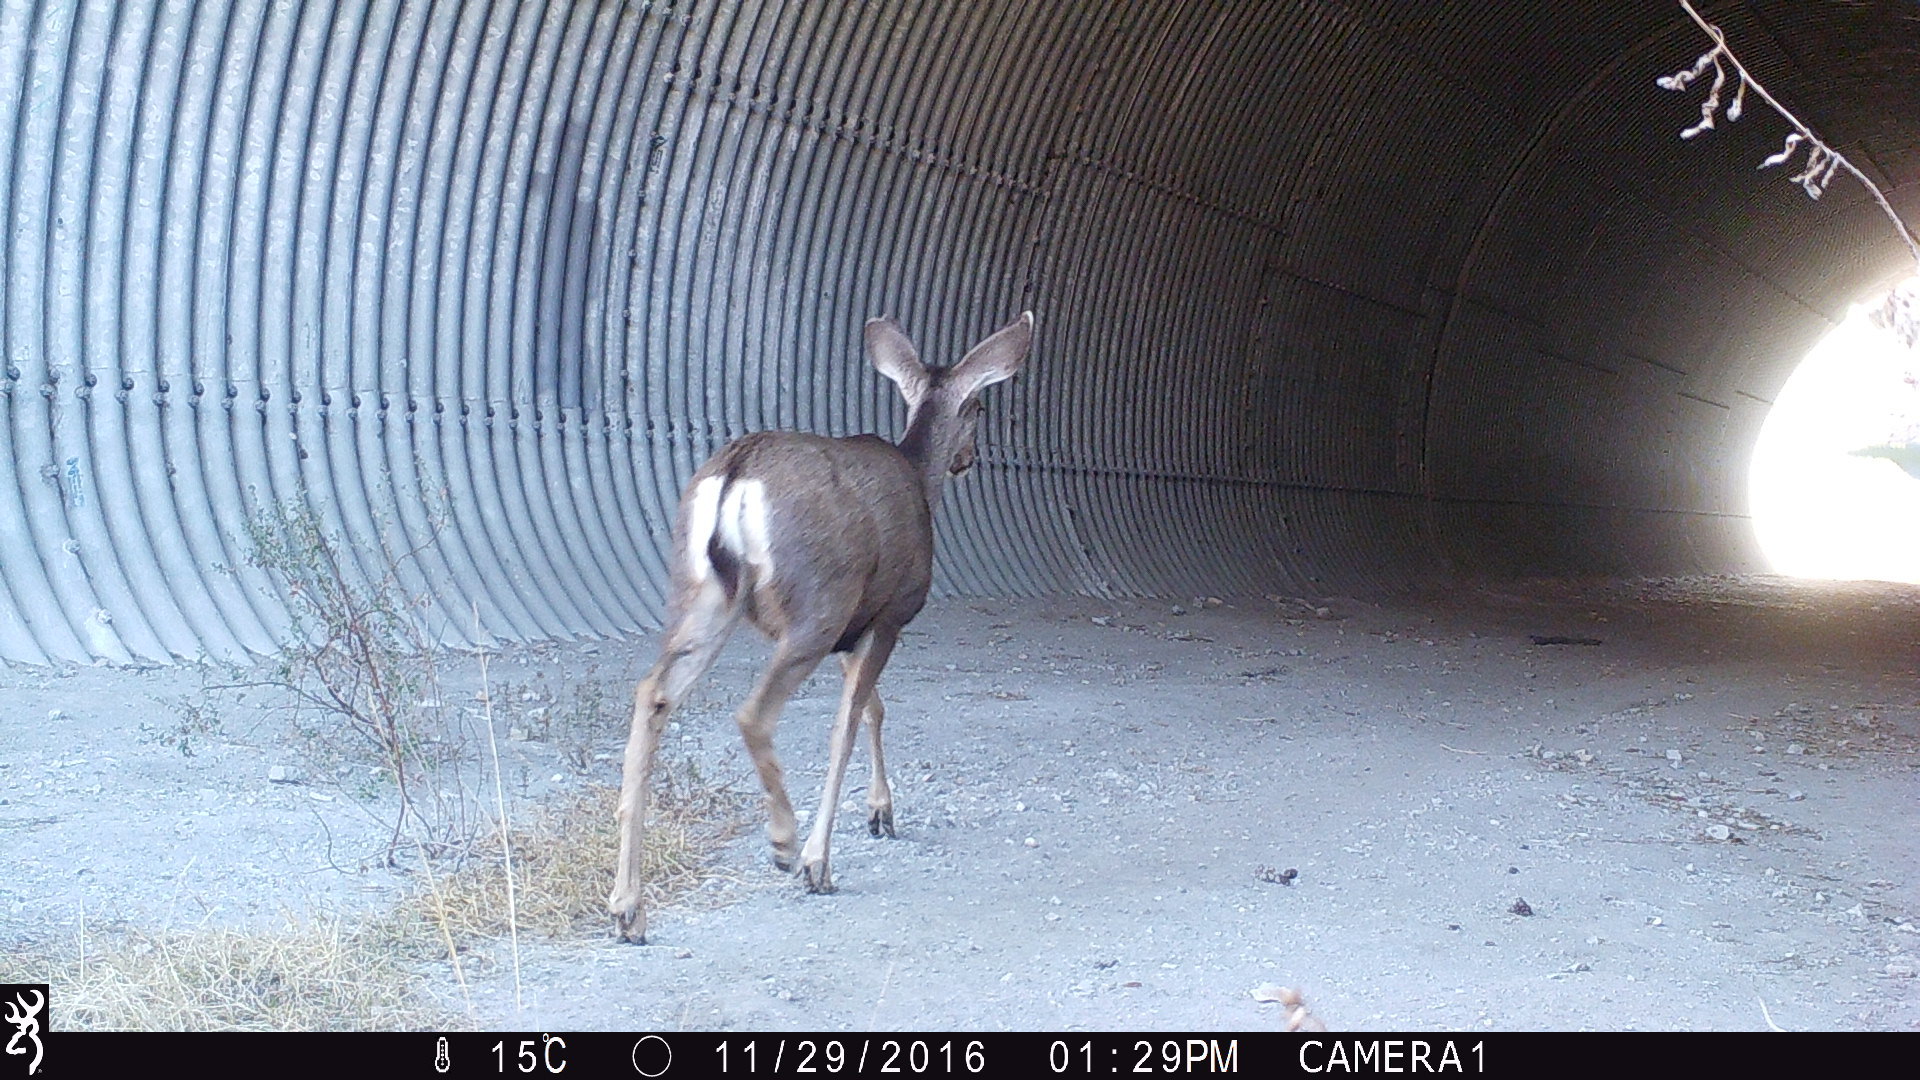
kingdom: Animalia
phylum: Chordata
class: Mammalia
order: Artiodactyla
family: Cervidae
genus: Odocoileus
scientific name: Odocoileus hemionus
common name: Mule deer
